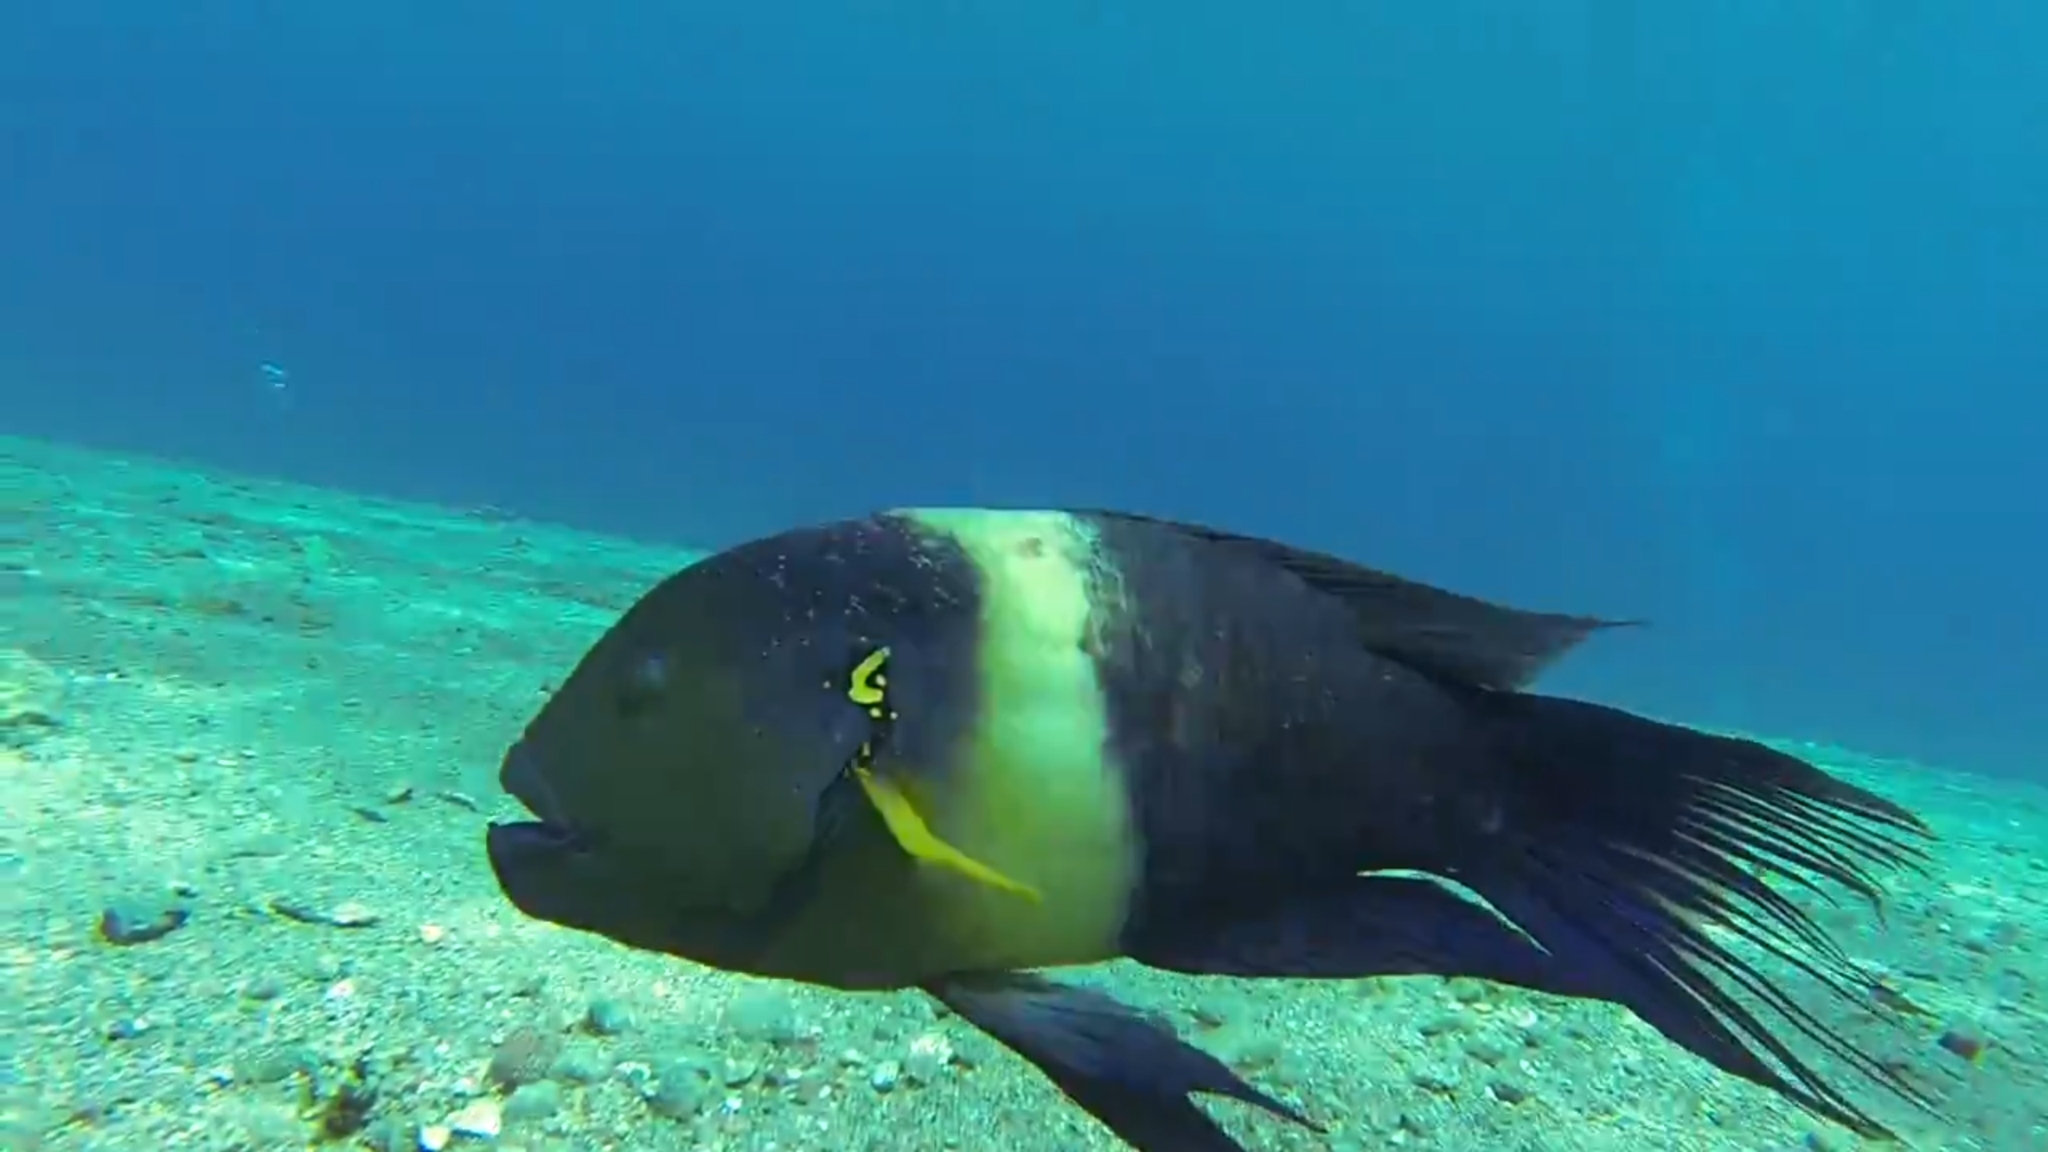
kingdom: Animalia
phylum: Chordata
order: Perciformes
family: Labridae
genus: Cheilinus
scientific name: Cheilinus lunulatus
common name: Broomtail wrasse
